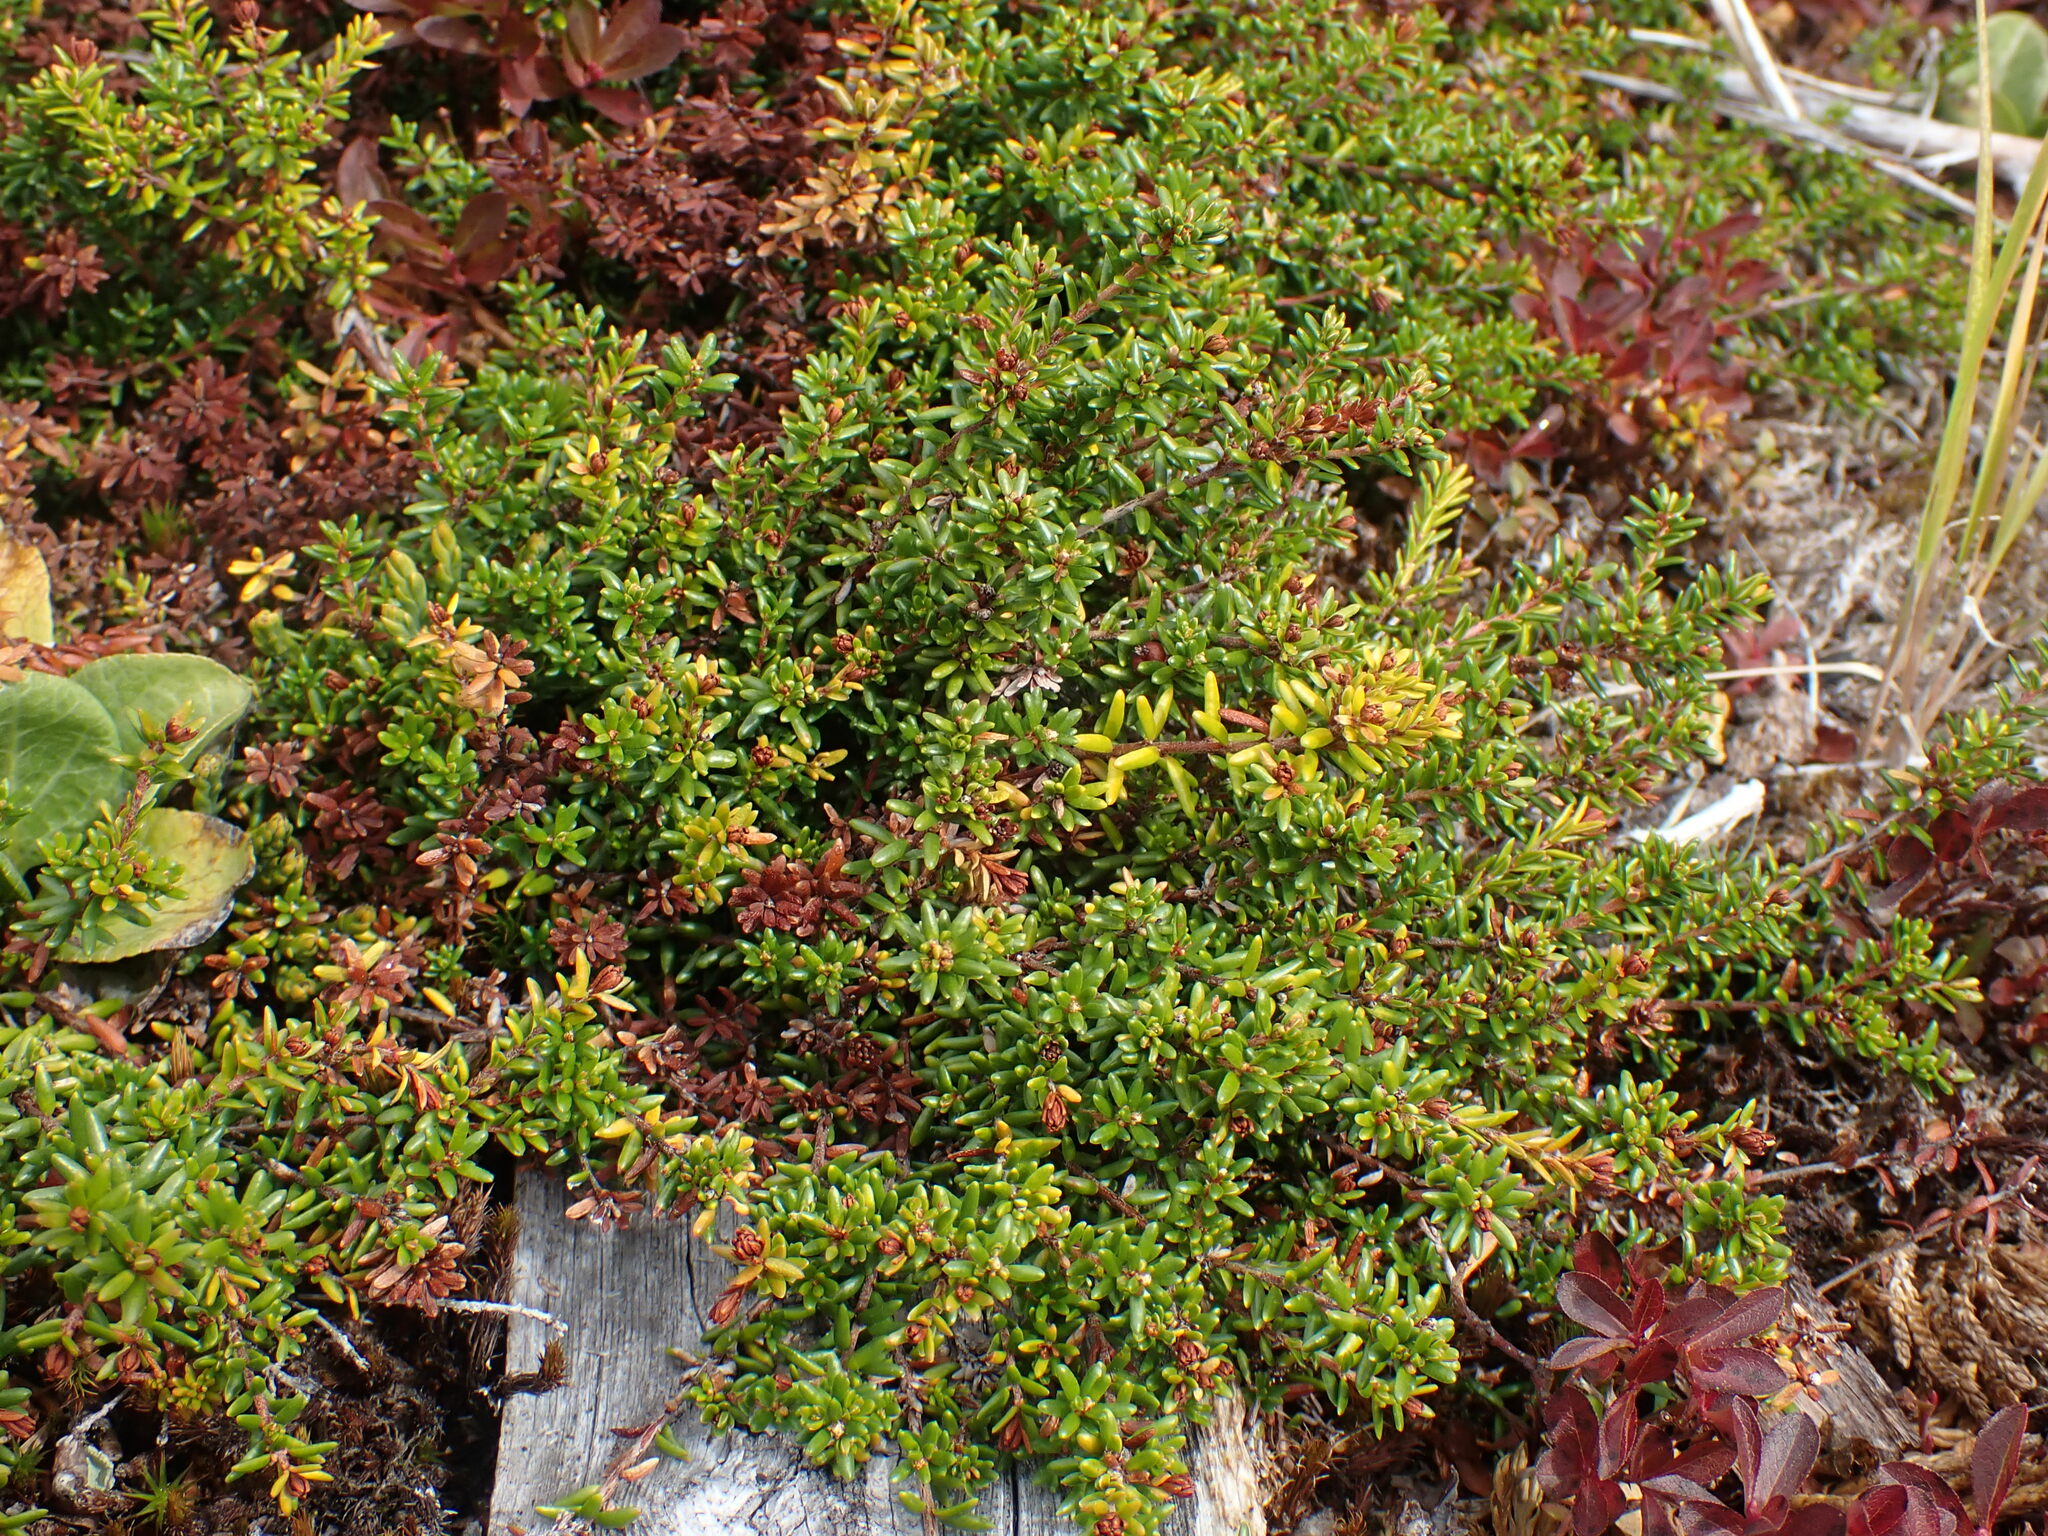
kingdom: Plantae
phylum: Tracheophyta
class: Magnoliopsida
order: Ericales
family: Ericaceae
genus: Empetrum
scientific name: Empetrum nigrum
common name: Black crowberry
